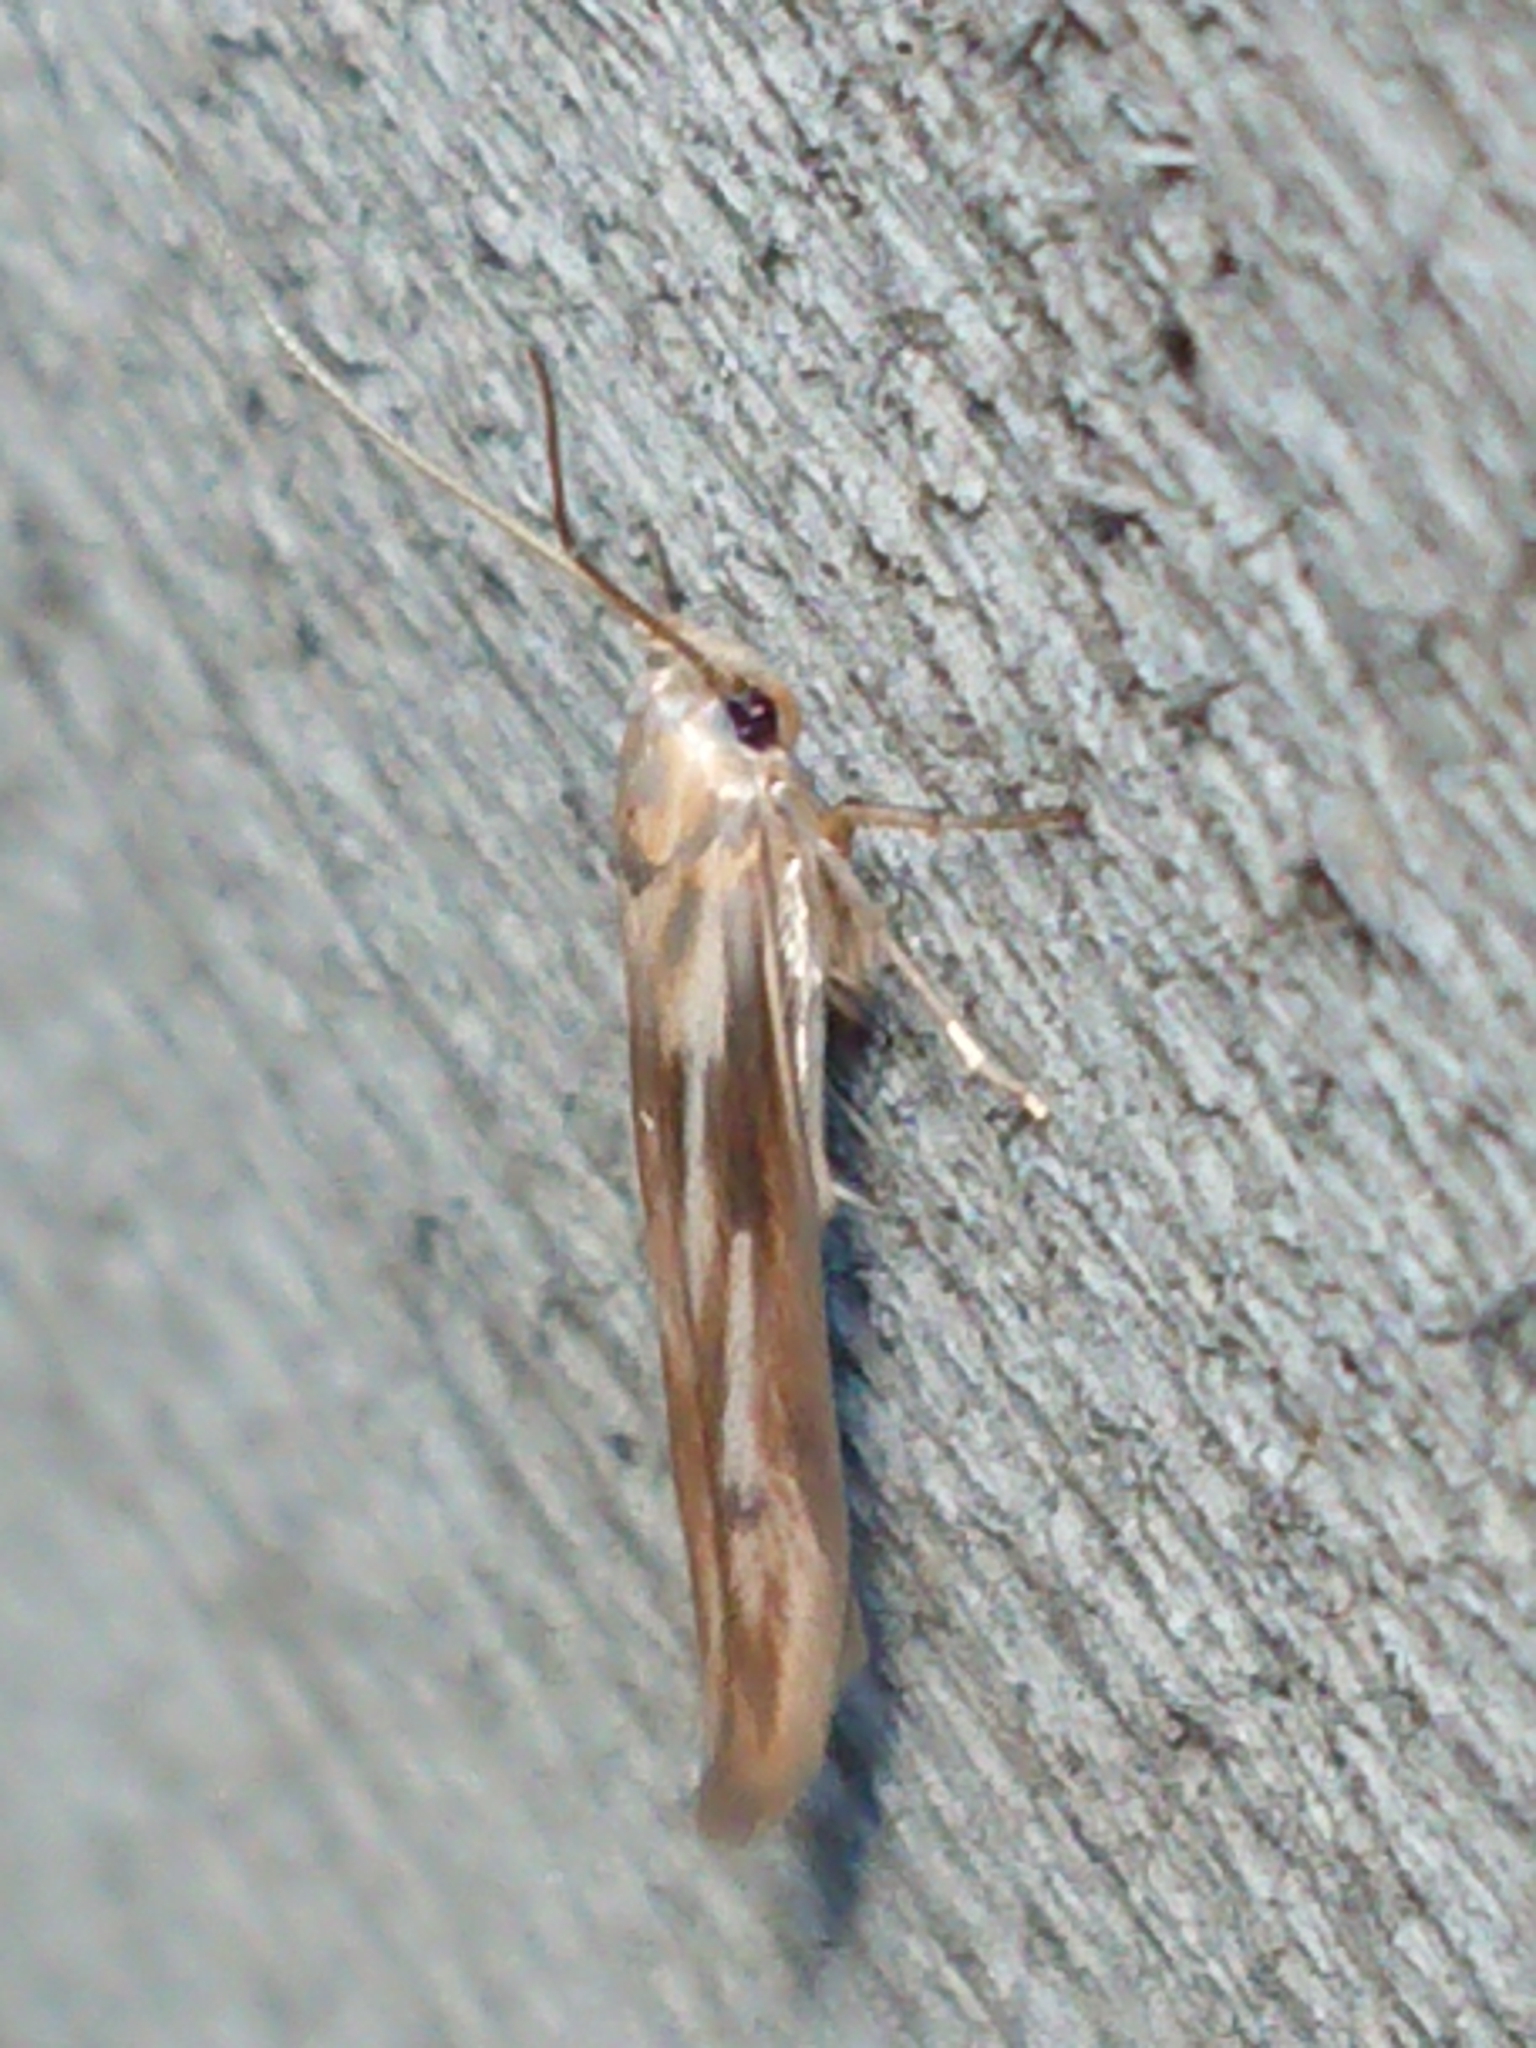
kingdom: Animalia
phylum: Arthropoda
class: Insecta
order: Lepidoptera
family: Stathmopodidae
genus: Stathmopoda
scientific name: Stathmopoda aposema
